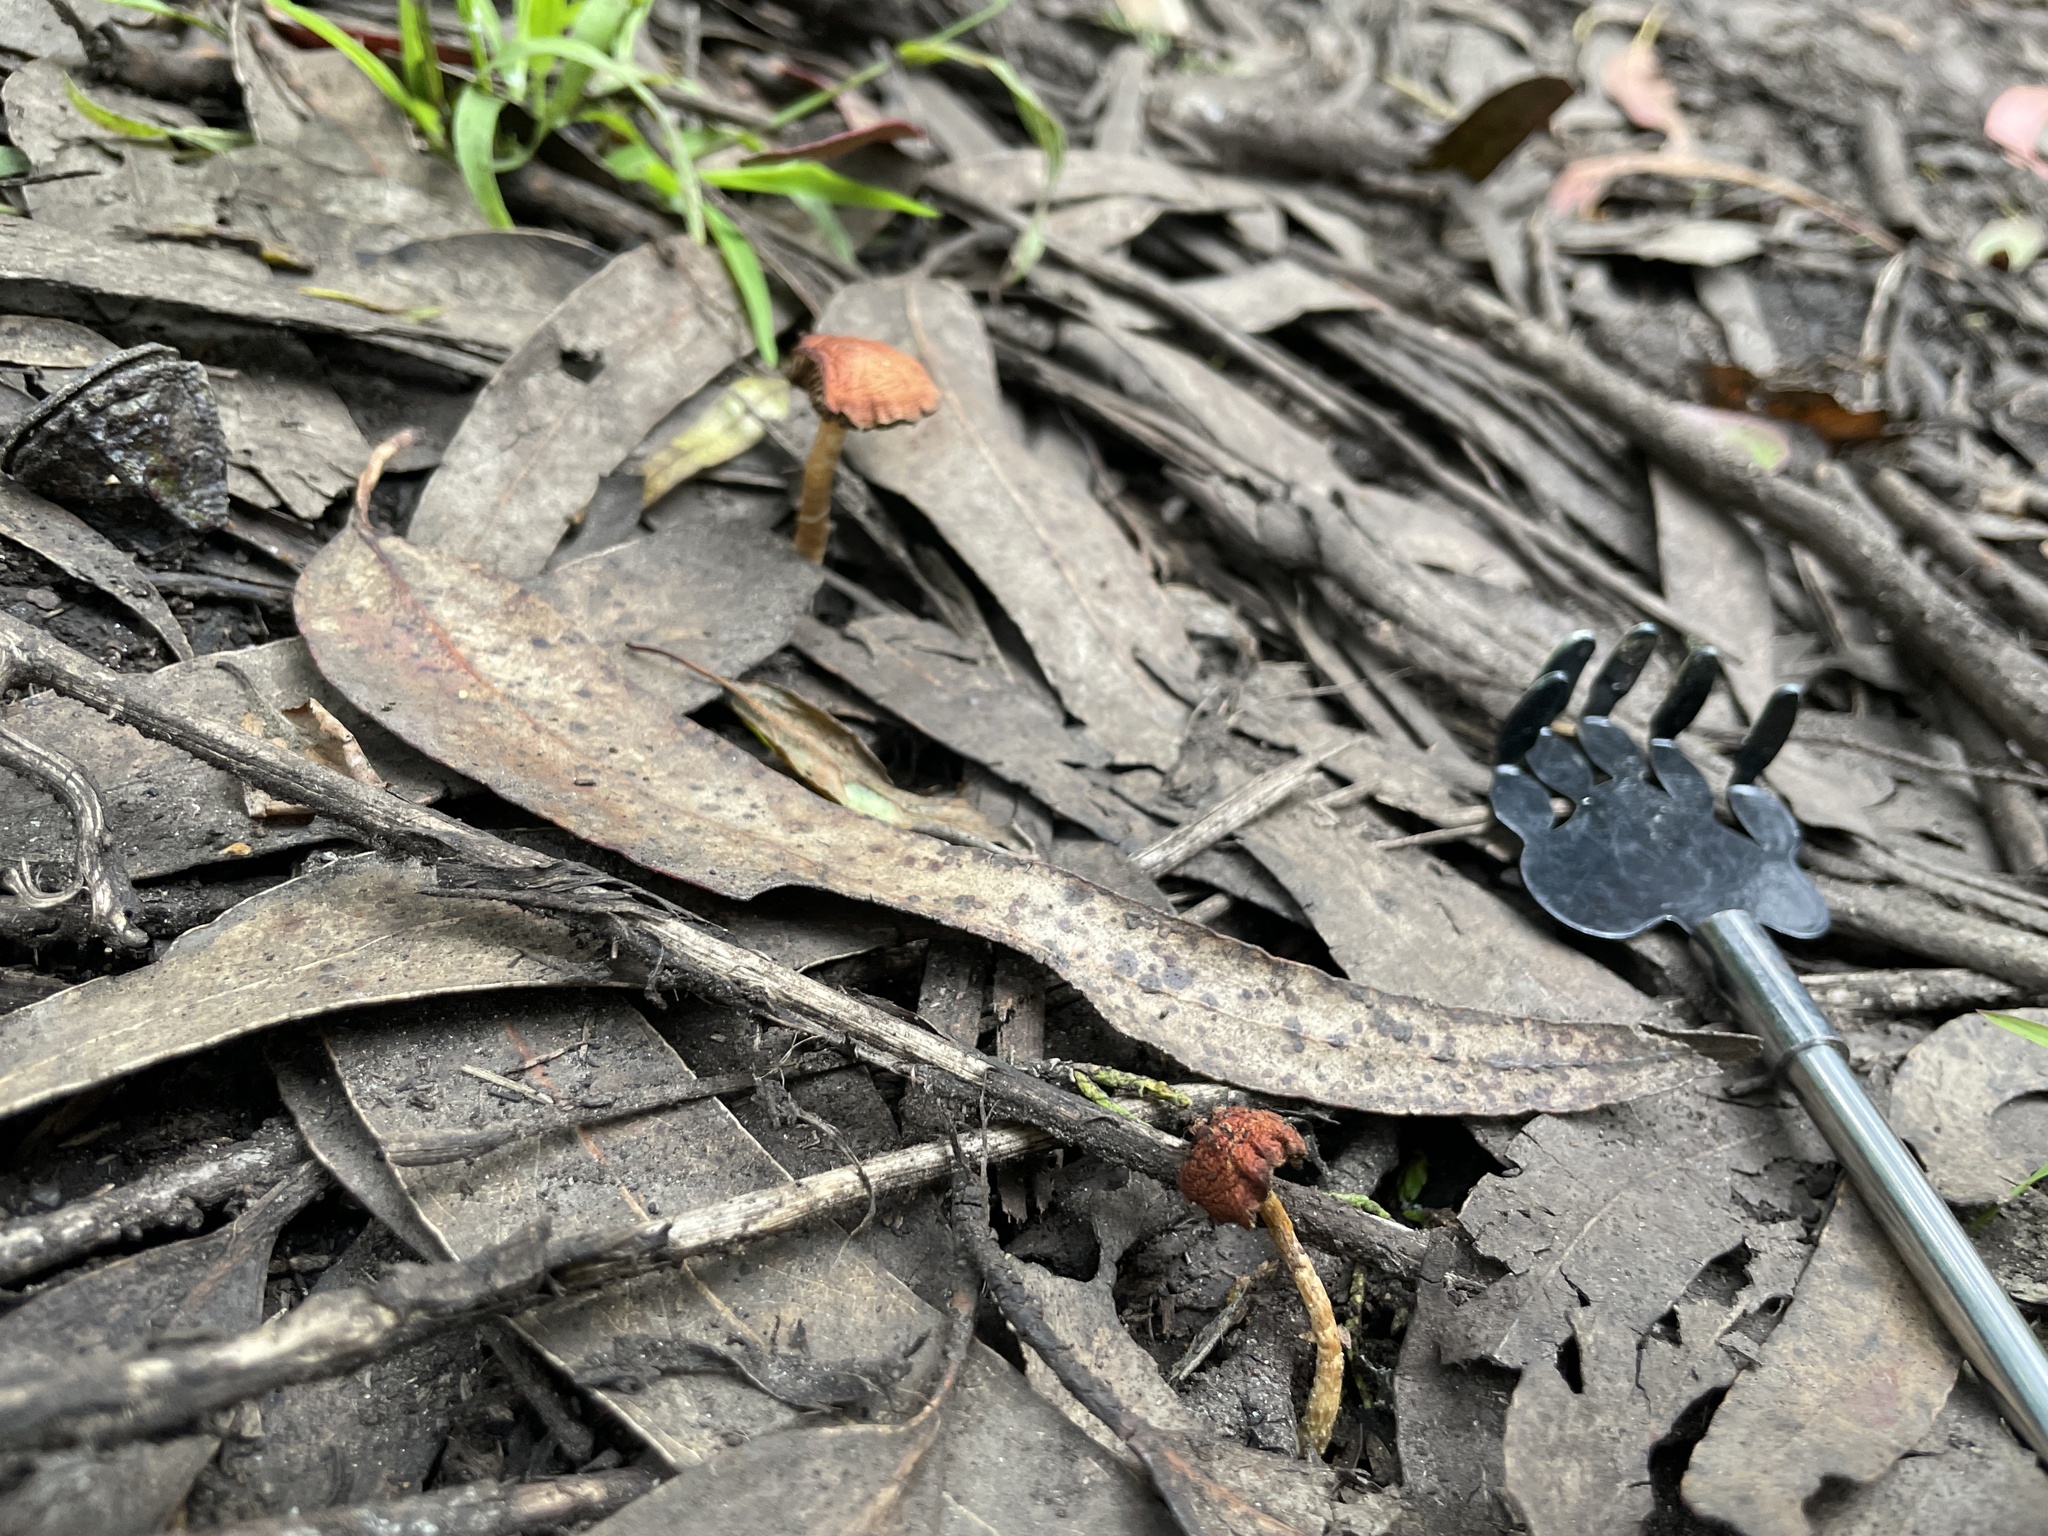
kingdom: Fungi
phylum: Basidiomycota
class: Agaricomycetes
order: Agaricales
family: Strophariaceae
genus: Leratiomyces
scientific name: Leratiomyces ceres
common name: Redlead roundhead
